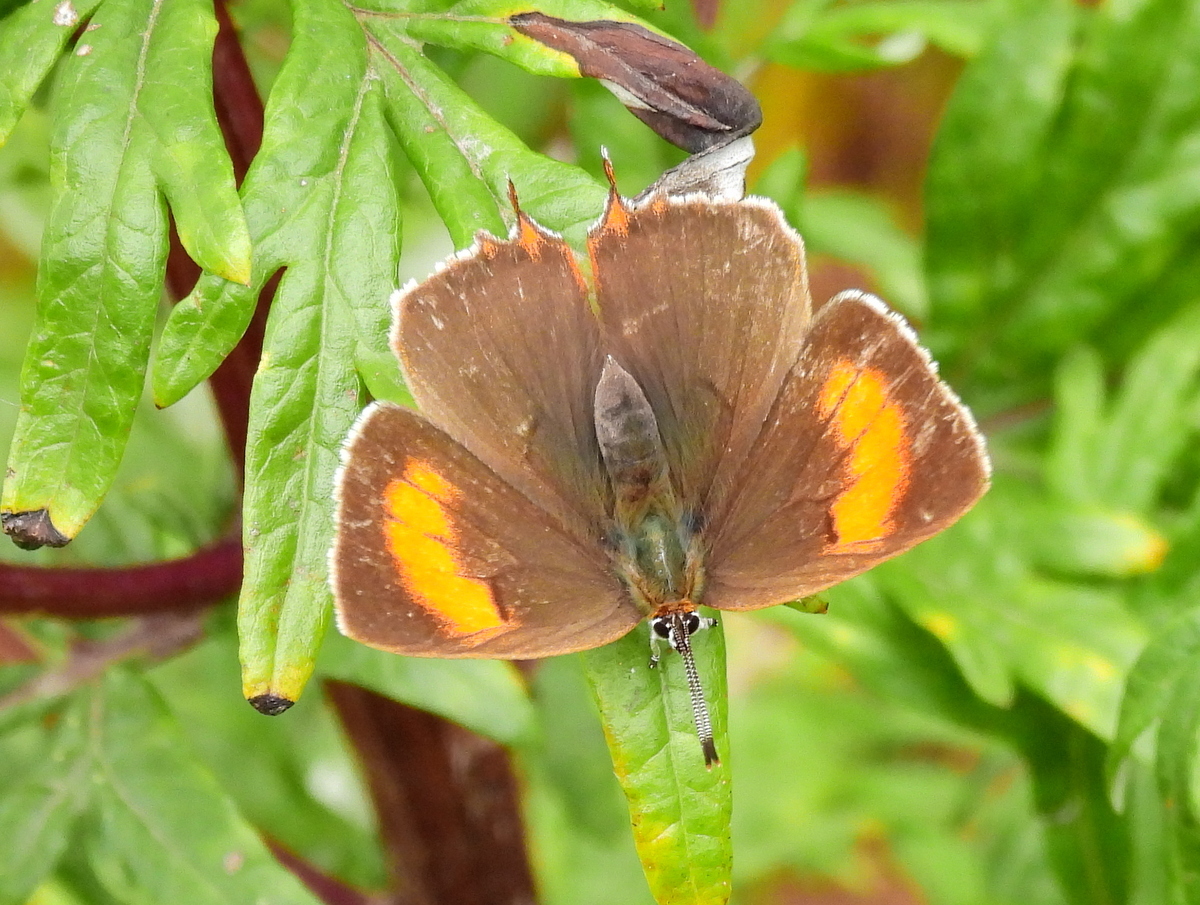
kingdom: Animalia
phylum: Arthropoda
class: Insecta
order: Lepidoptera
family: Lycaenidae
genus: Thecla
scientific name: Thecla betulae
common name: Brown hairstreak
